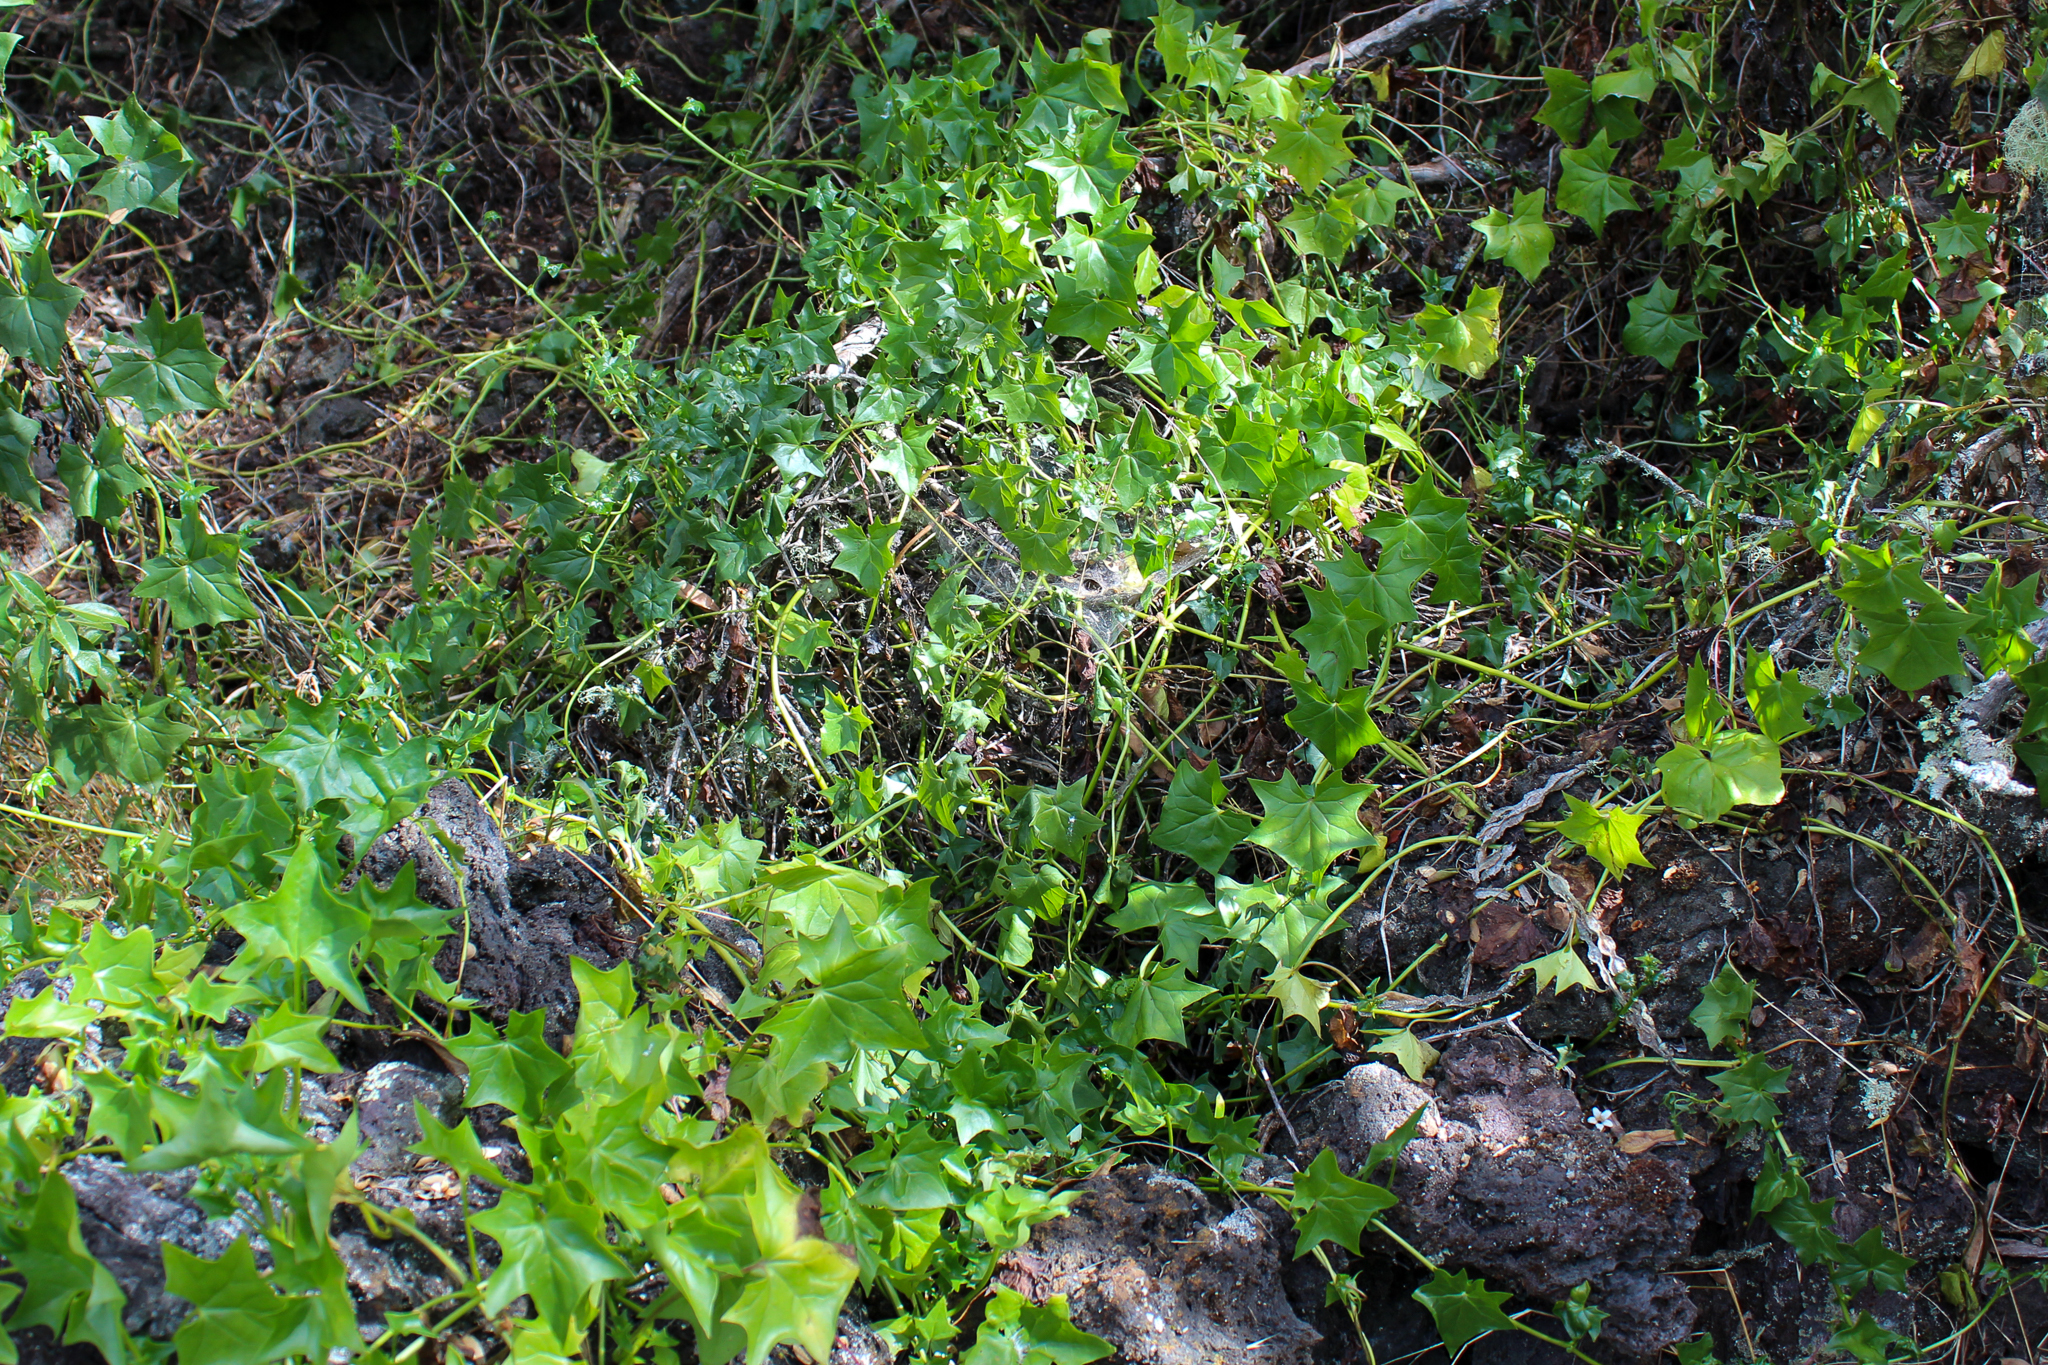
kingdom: Plantae
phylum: Tracheophyta
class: Magnoliopsida
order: Asterales
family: Asteraceae
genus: Delairea
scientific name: Delairea odorata
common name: Cape-ivy
